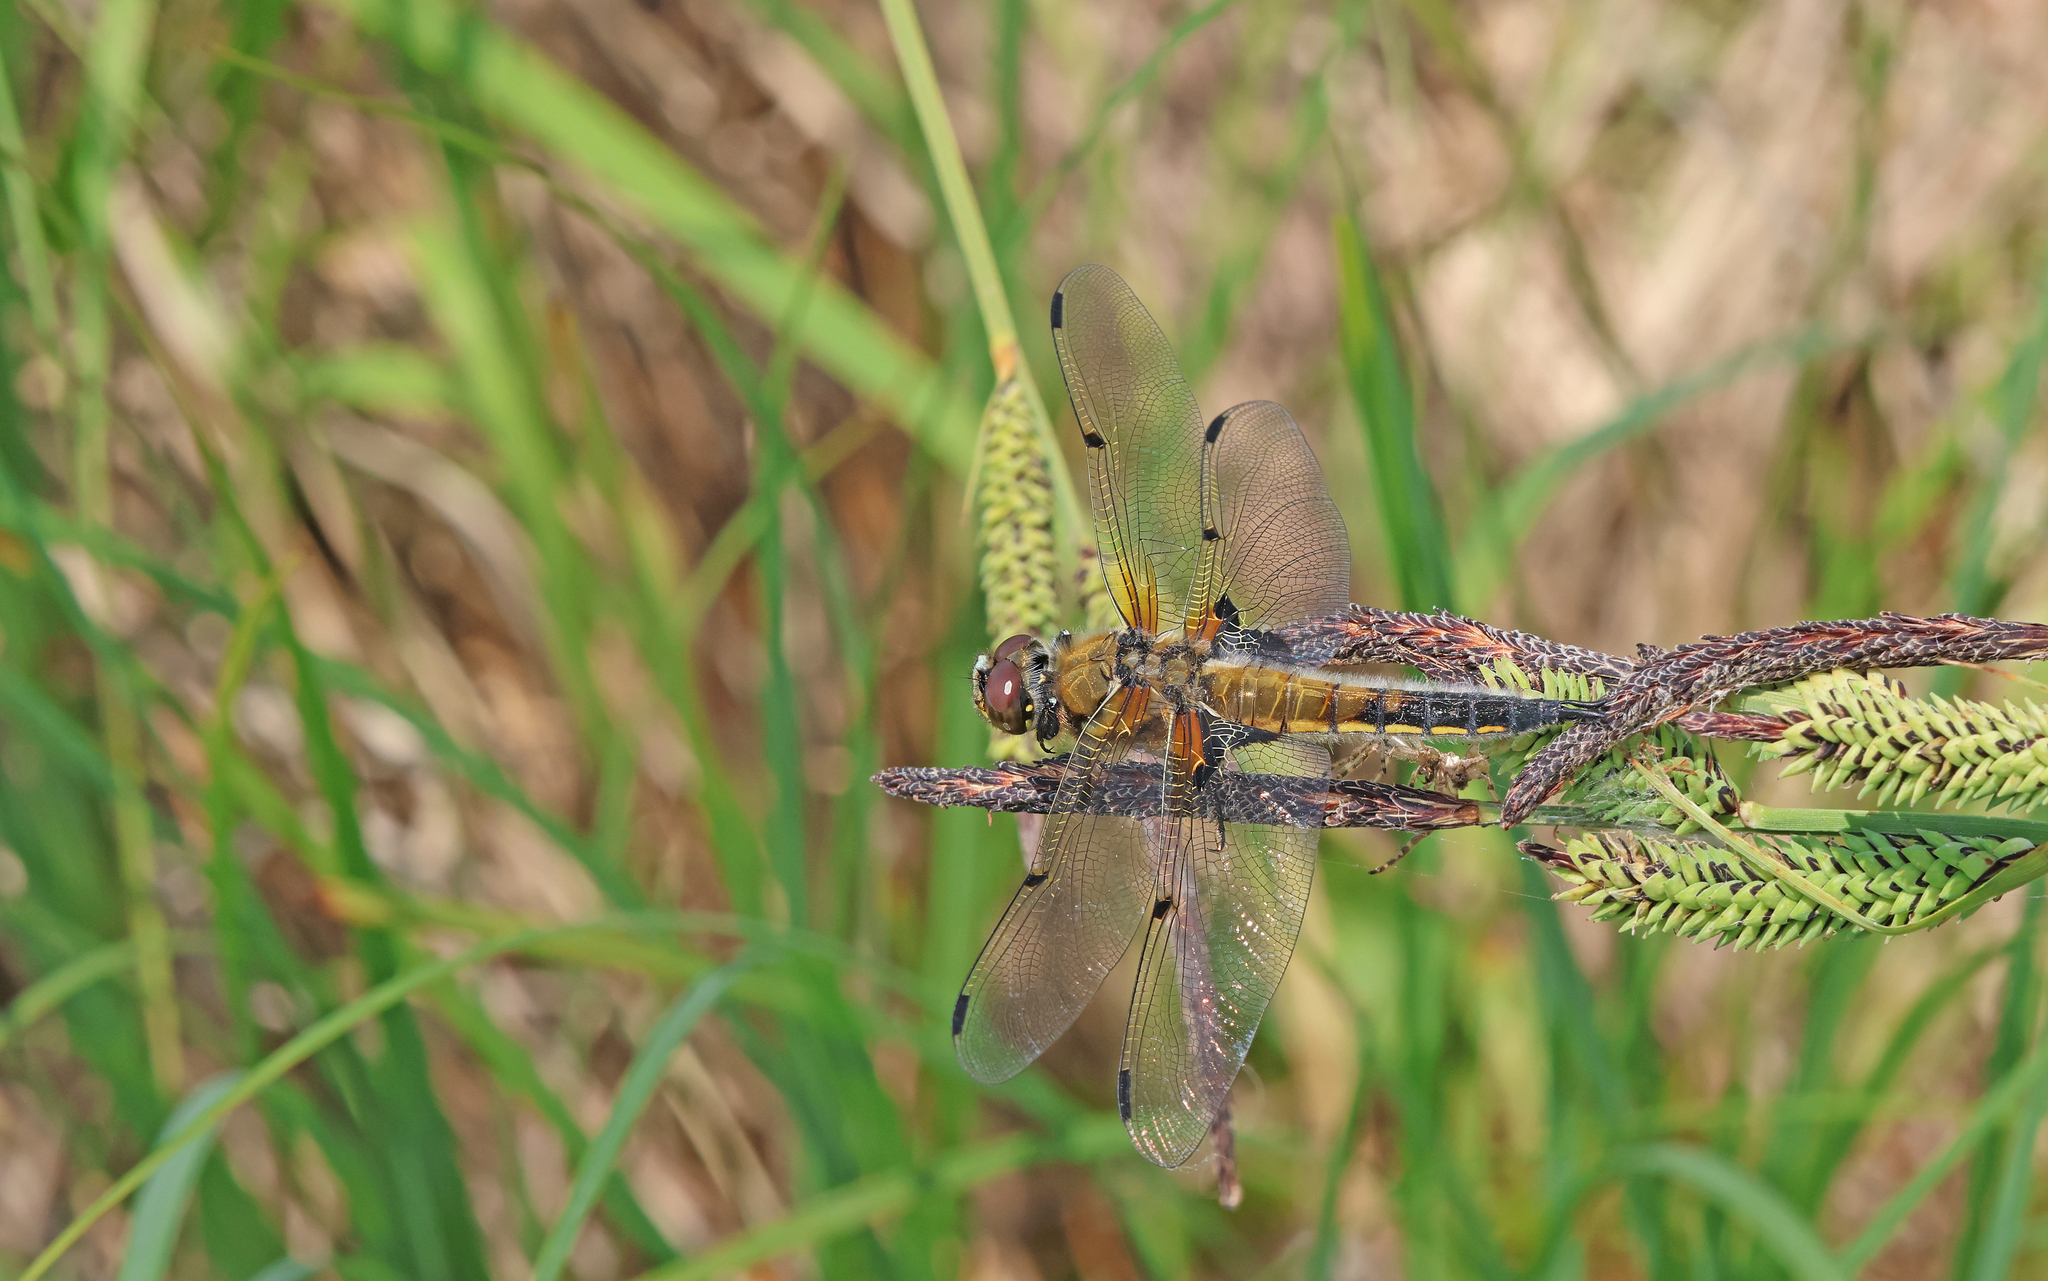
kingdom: Animalia
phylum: Arthropoda
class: Insecta
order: Odonata
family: Libellulidae
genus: Libellula
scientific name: Libellula quadrimaculata
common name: Four-spotted chaser
